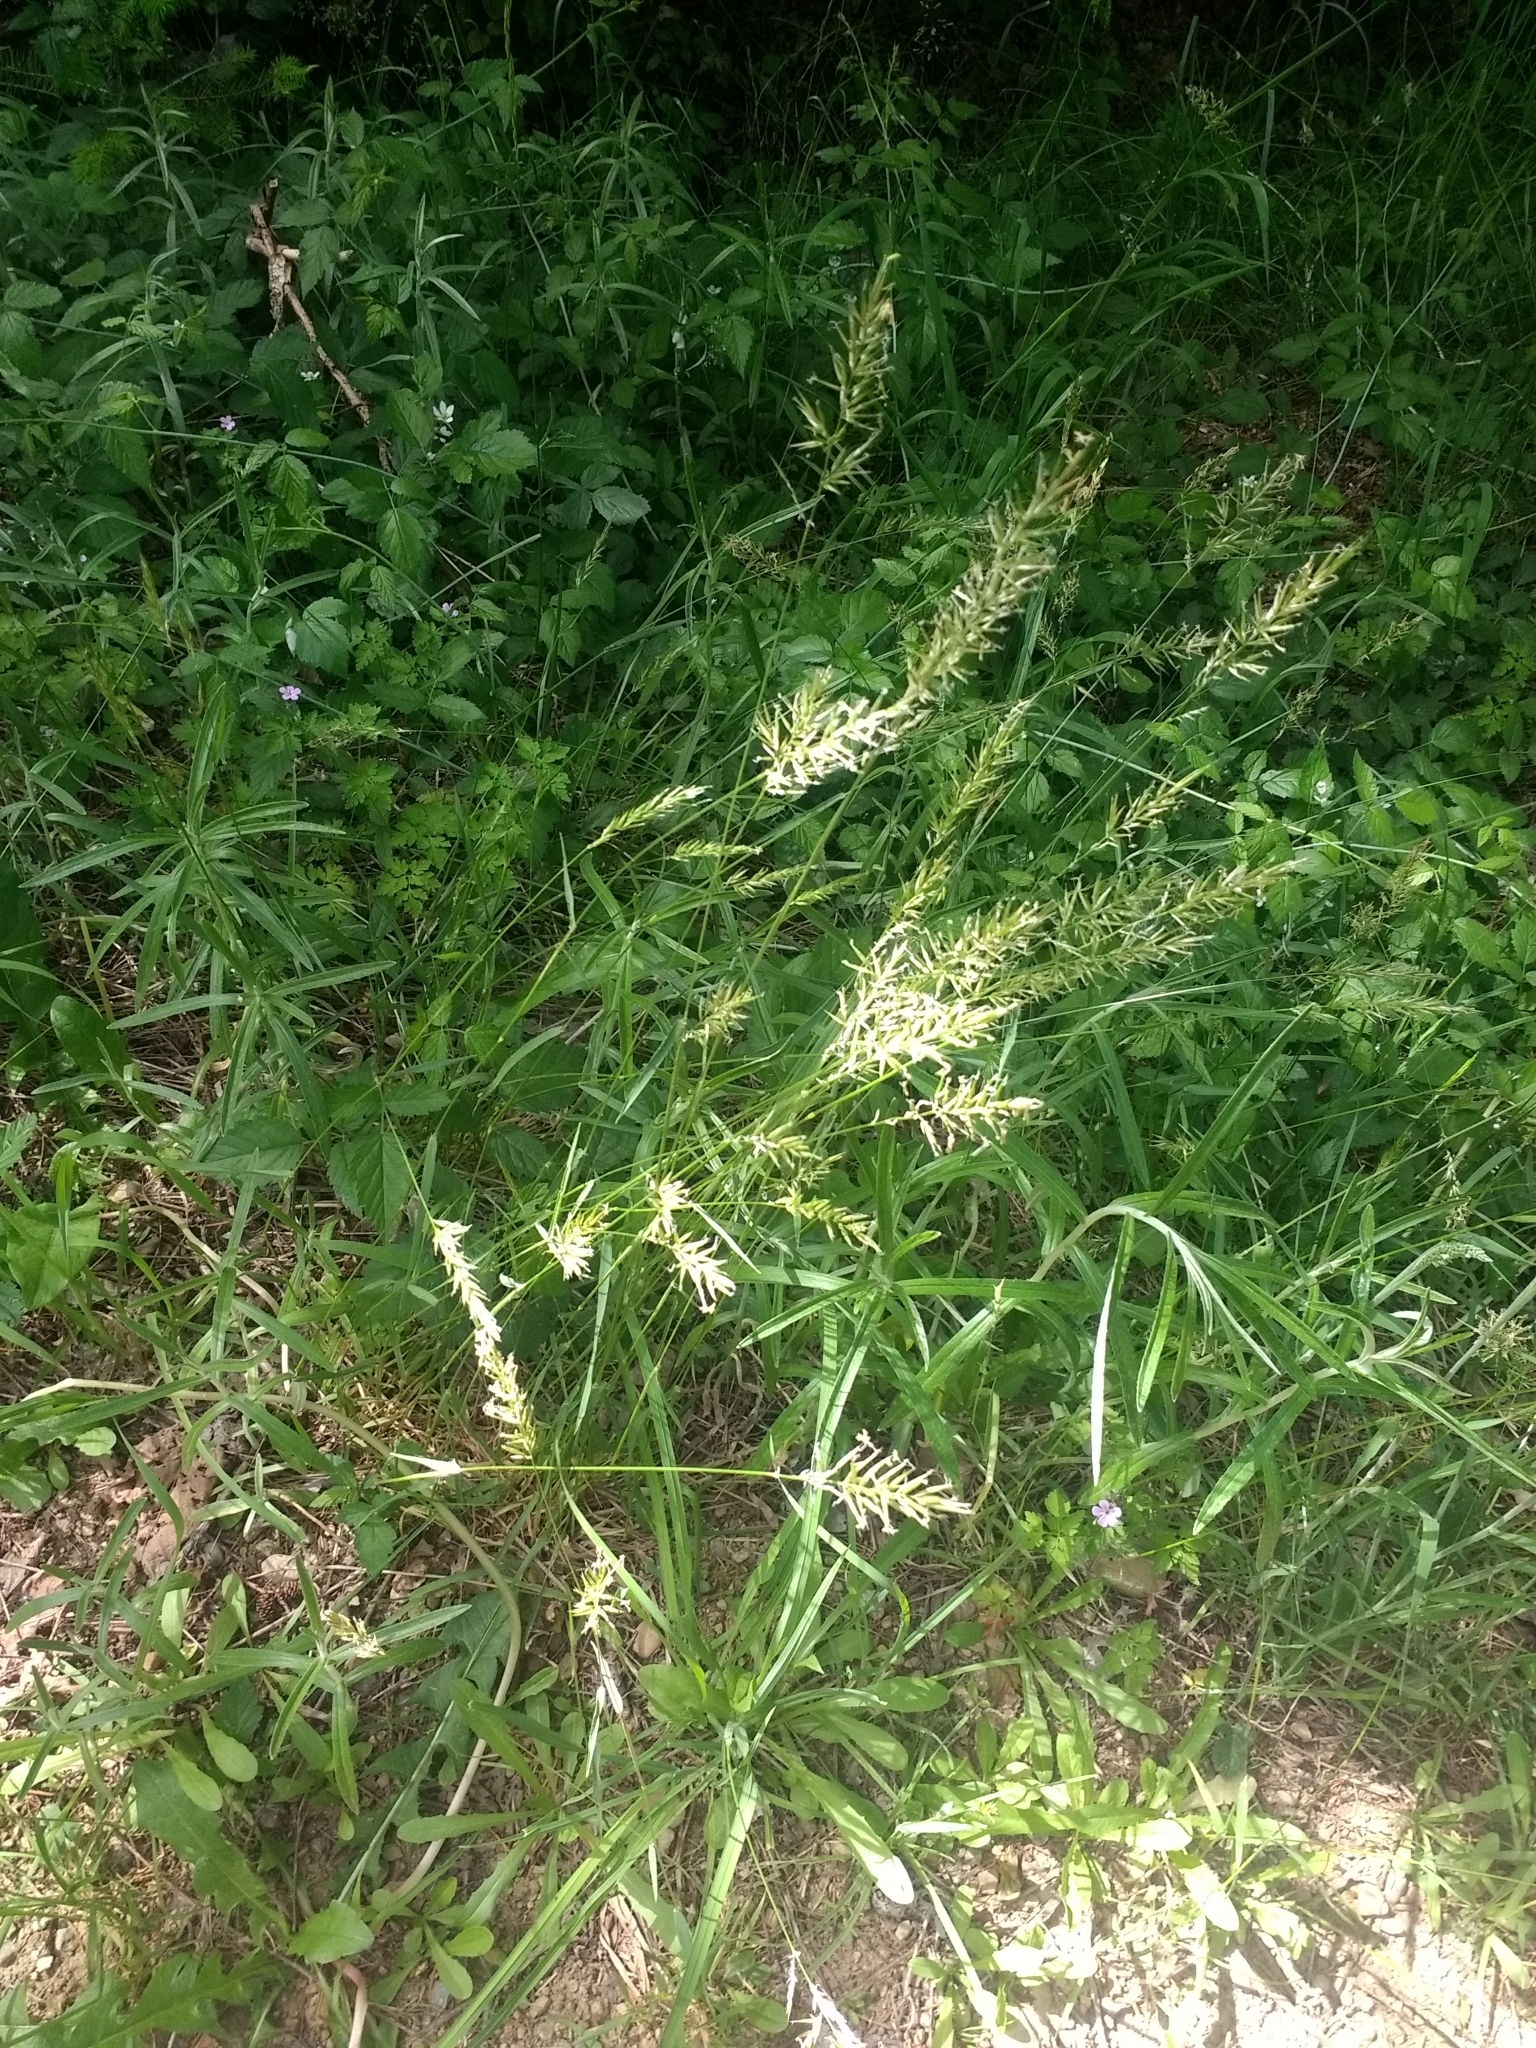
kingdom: Plantae
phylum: Tracheophyta
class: Liliopsida
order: Poales
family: Poaceae
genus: Anthoxanthum
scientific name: Anthoxanthum odoratum
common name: Sweet vernalgrass
